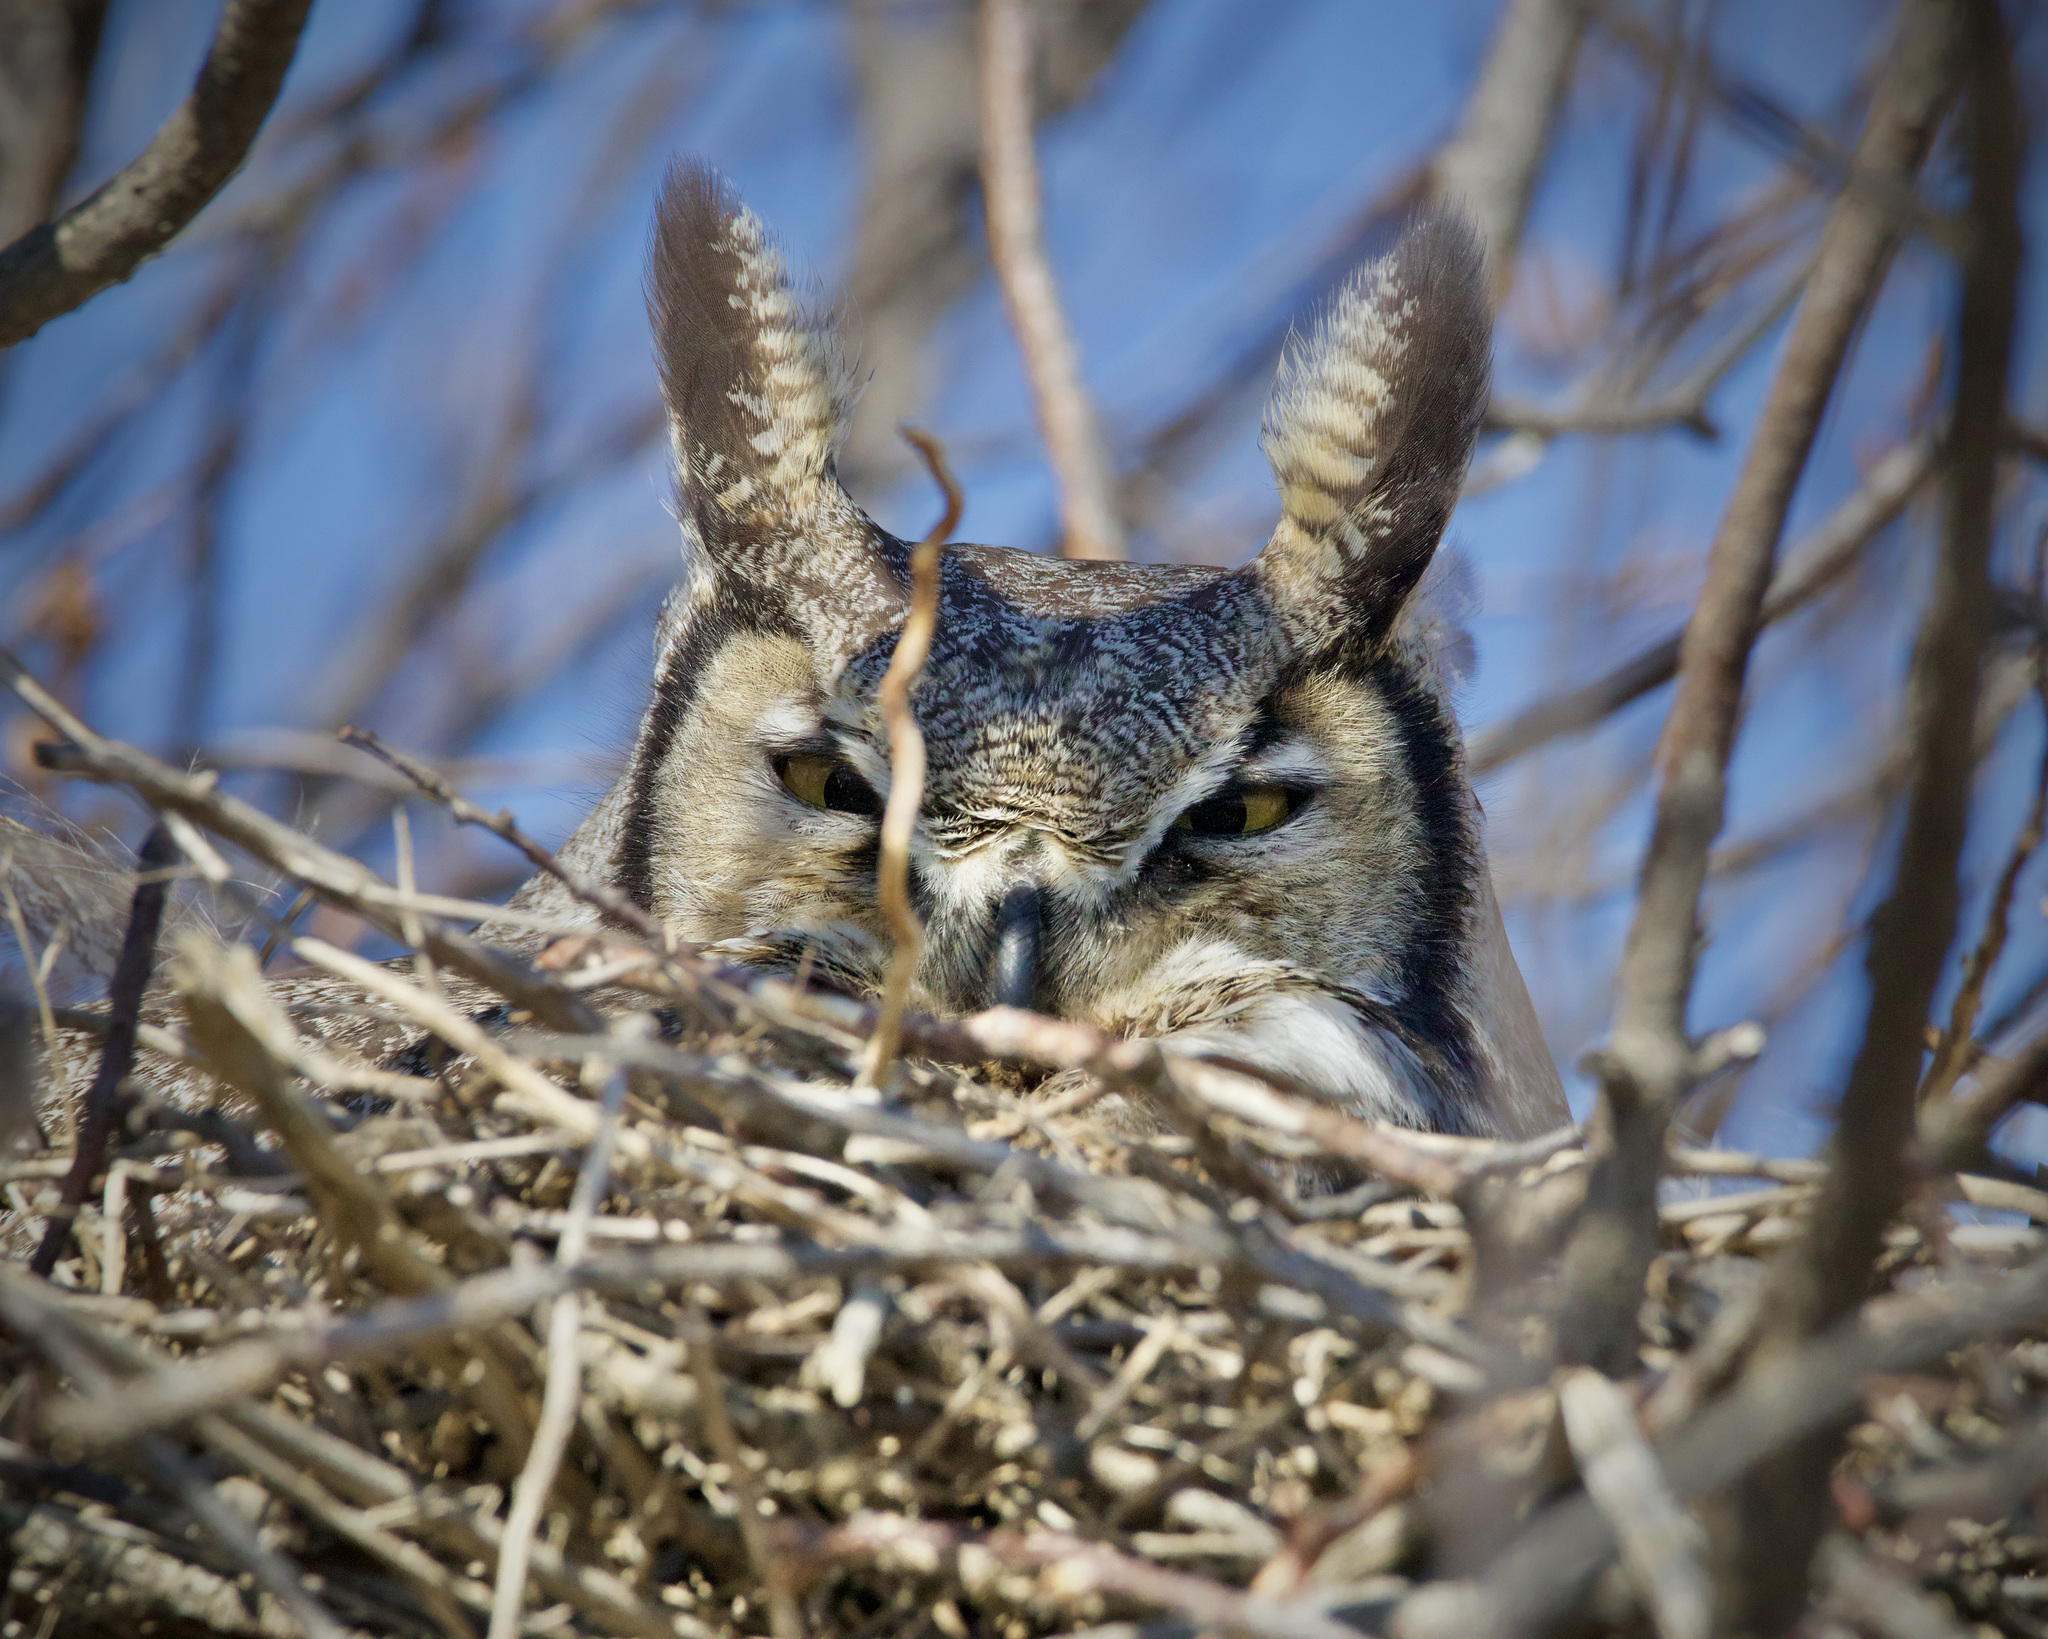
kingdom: Animalia
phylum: Chordata
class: Aves
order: Strigiformes
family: Strigidae
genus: Bubo
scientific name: Bubo virginianus
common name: Great horned owl
